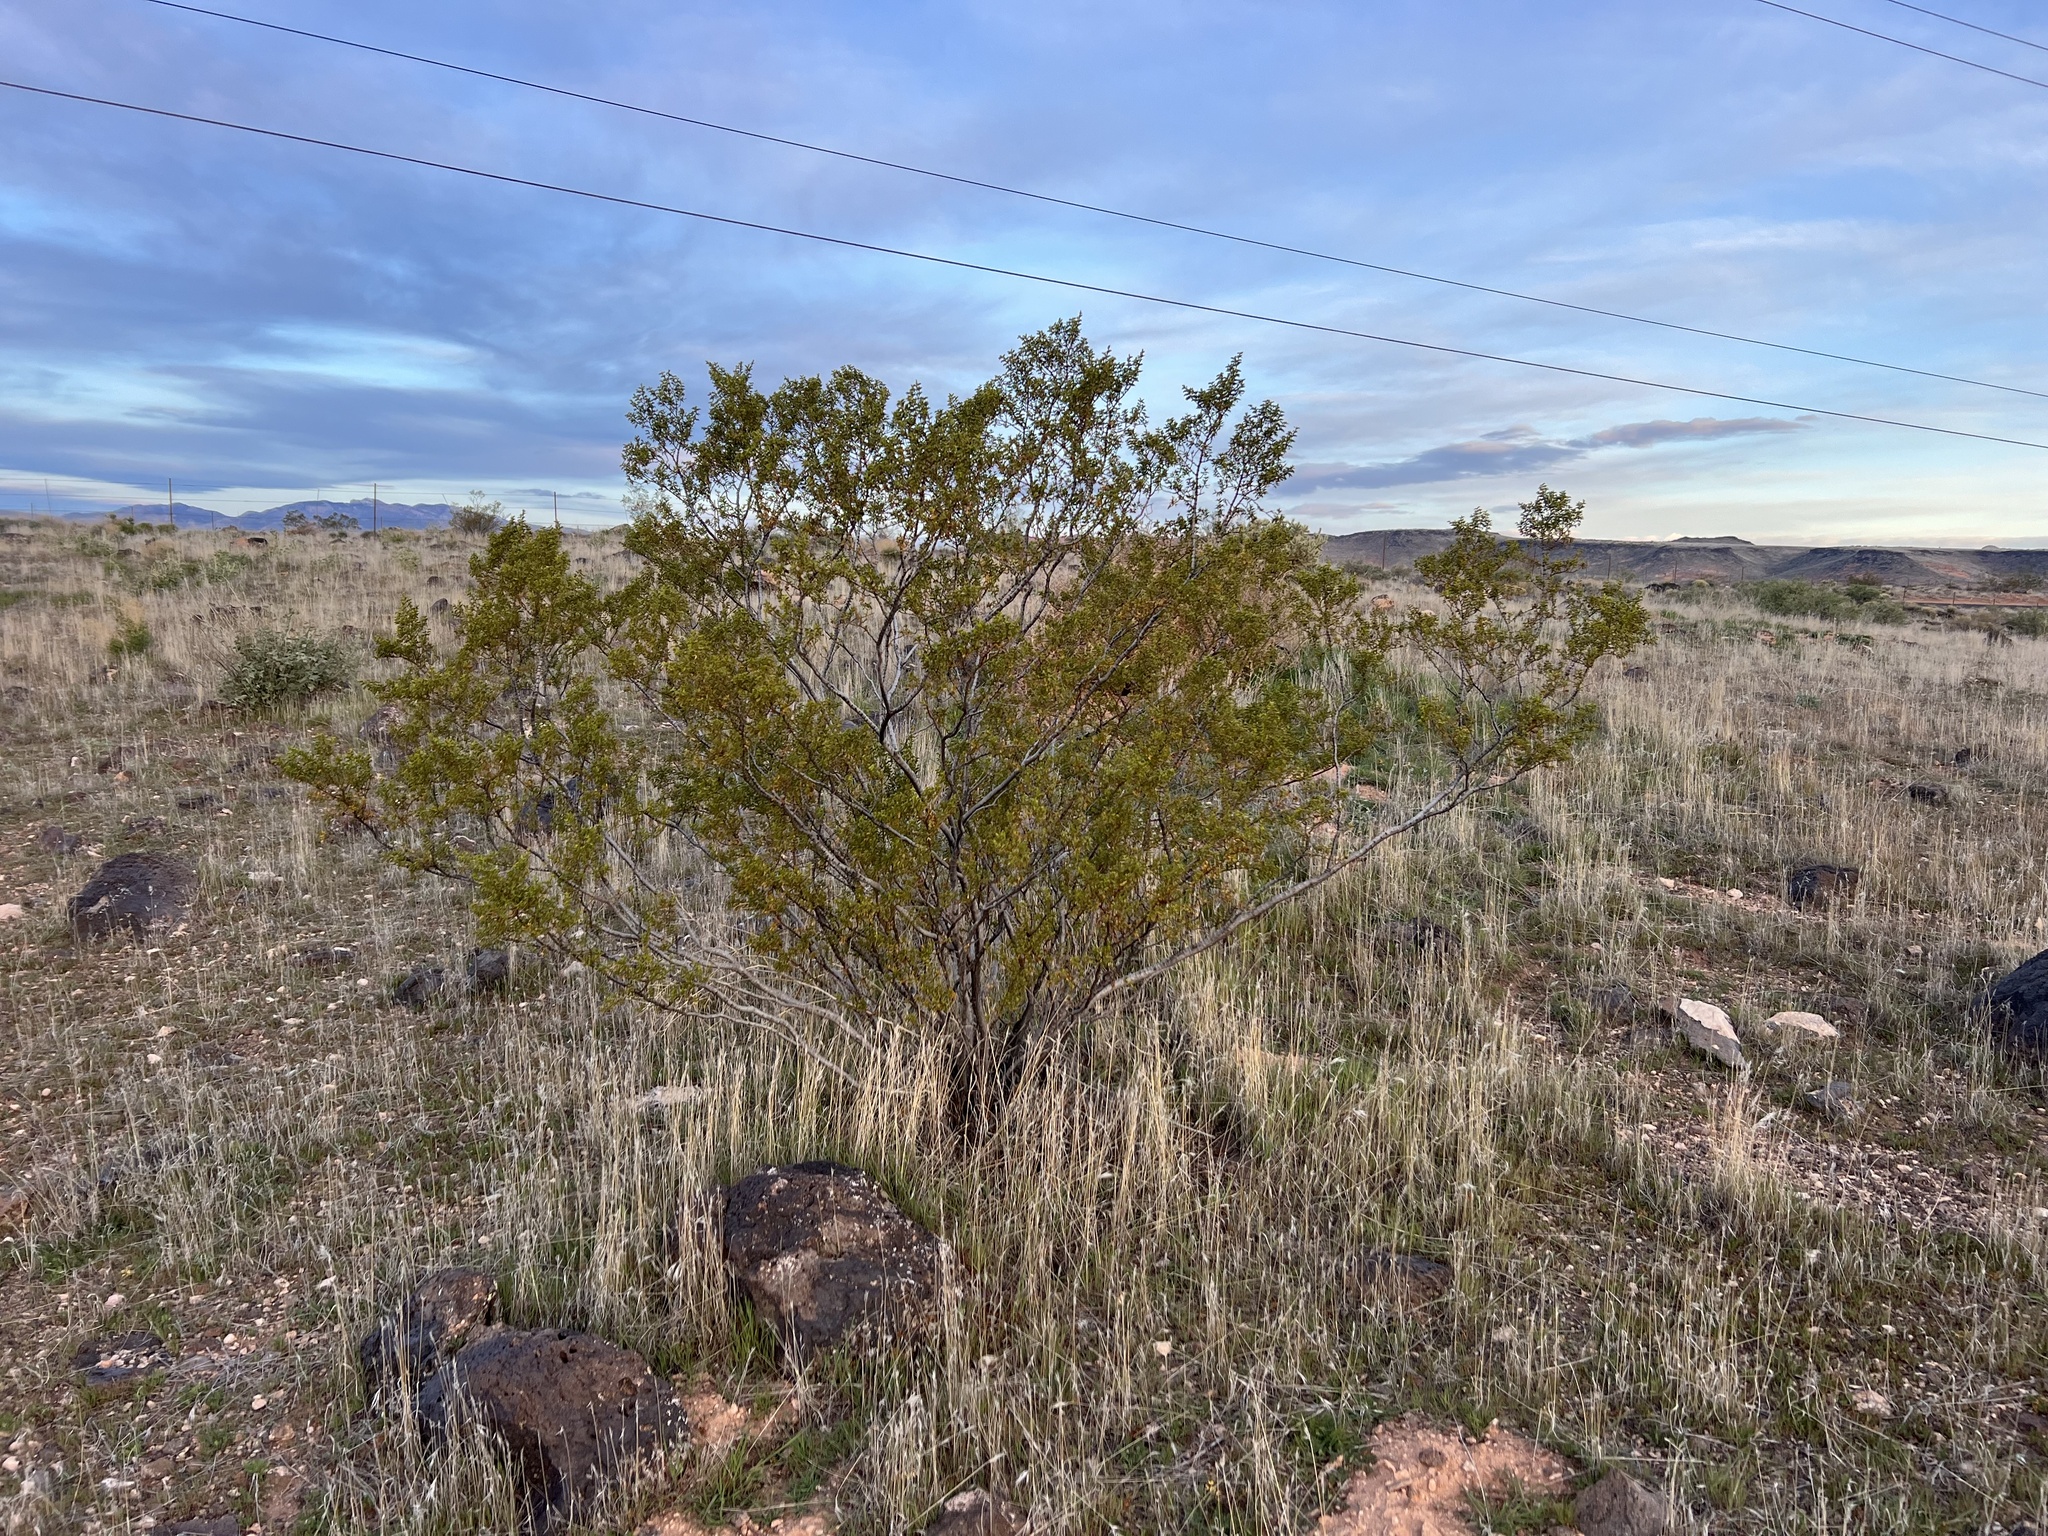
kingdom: Plantae
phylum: Tracheophyta
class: Magnoliopsida
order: Zygophyllales
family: Zygophyllaceae
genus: Larrea
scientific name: Larrea tridentata
